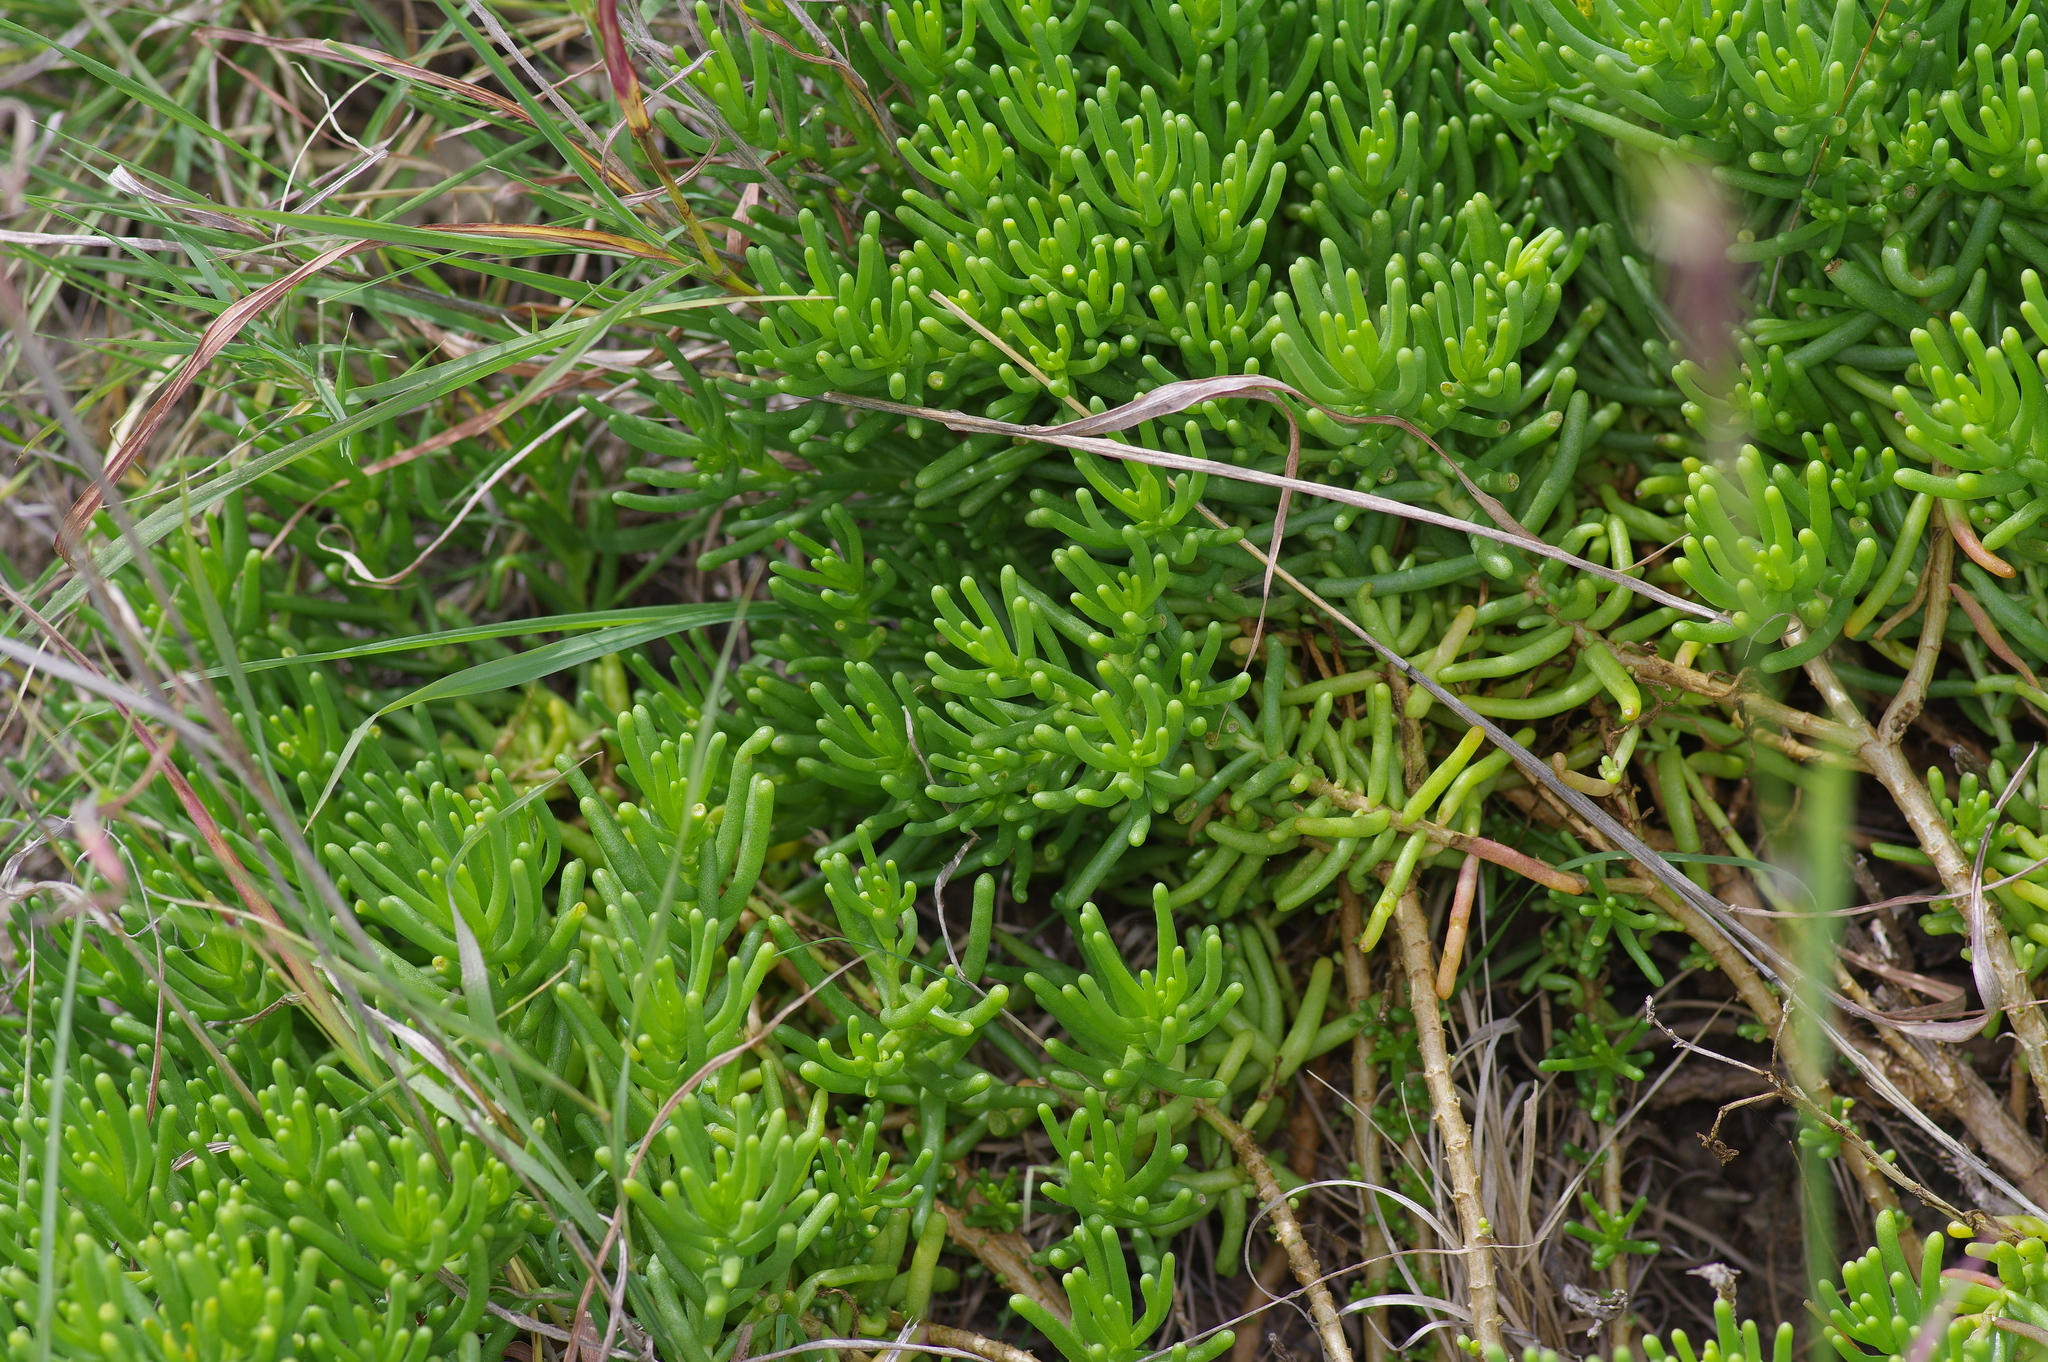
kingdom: Plantae
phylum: Tracheophyta
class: Magnoliopsida
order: Asterales
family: Asteraceae
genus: Varilla
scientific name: Varilla texana
